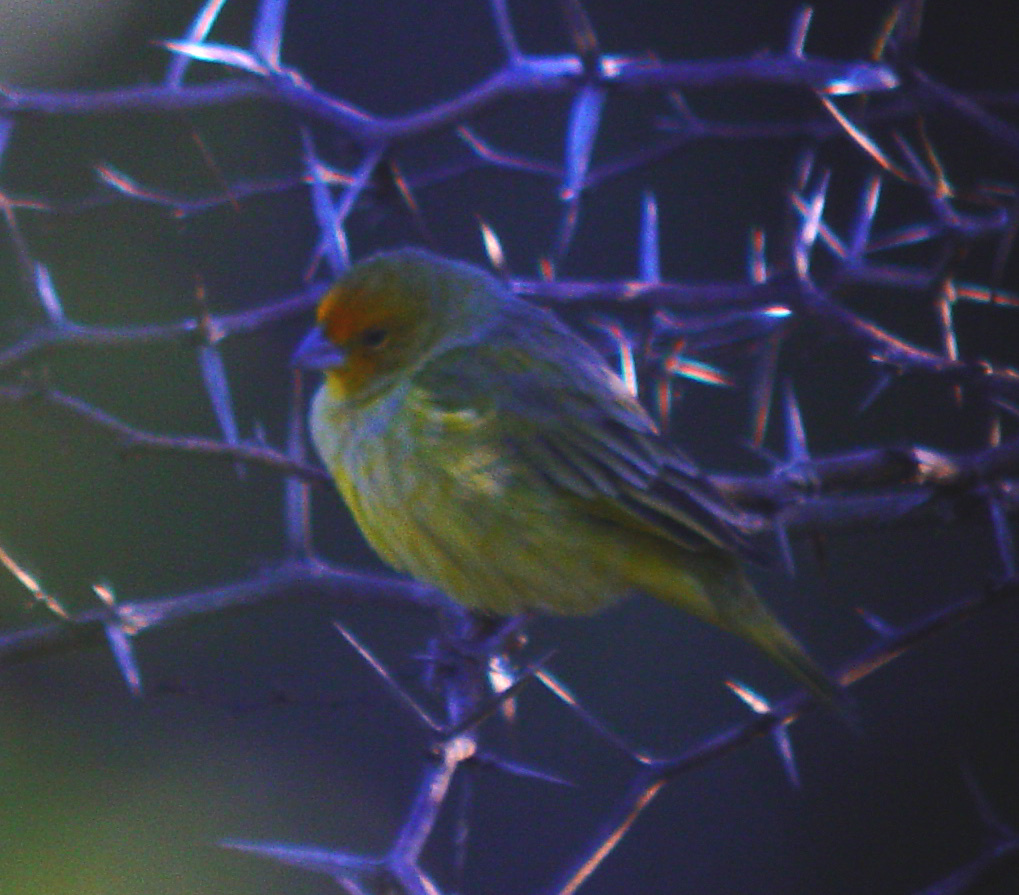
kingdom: Animalia
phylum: Chordata
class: Aves
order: Passeriformes
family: Thraupidae
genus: Sicalis
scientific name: Sicalis flaveola
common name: Saffron finch
